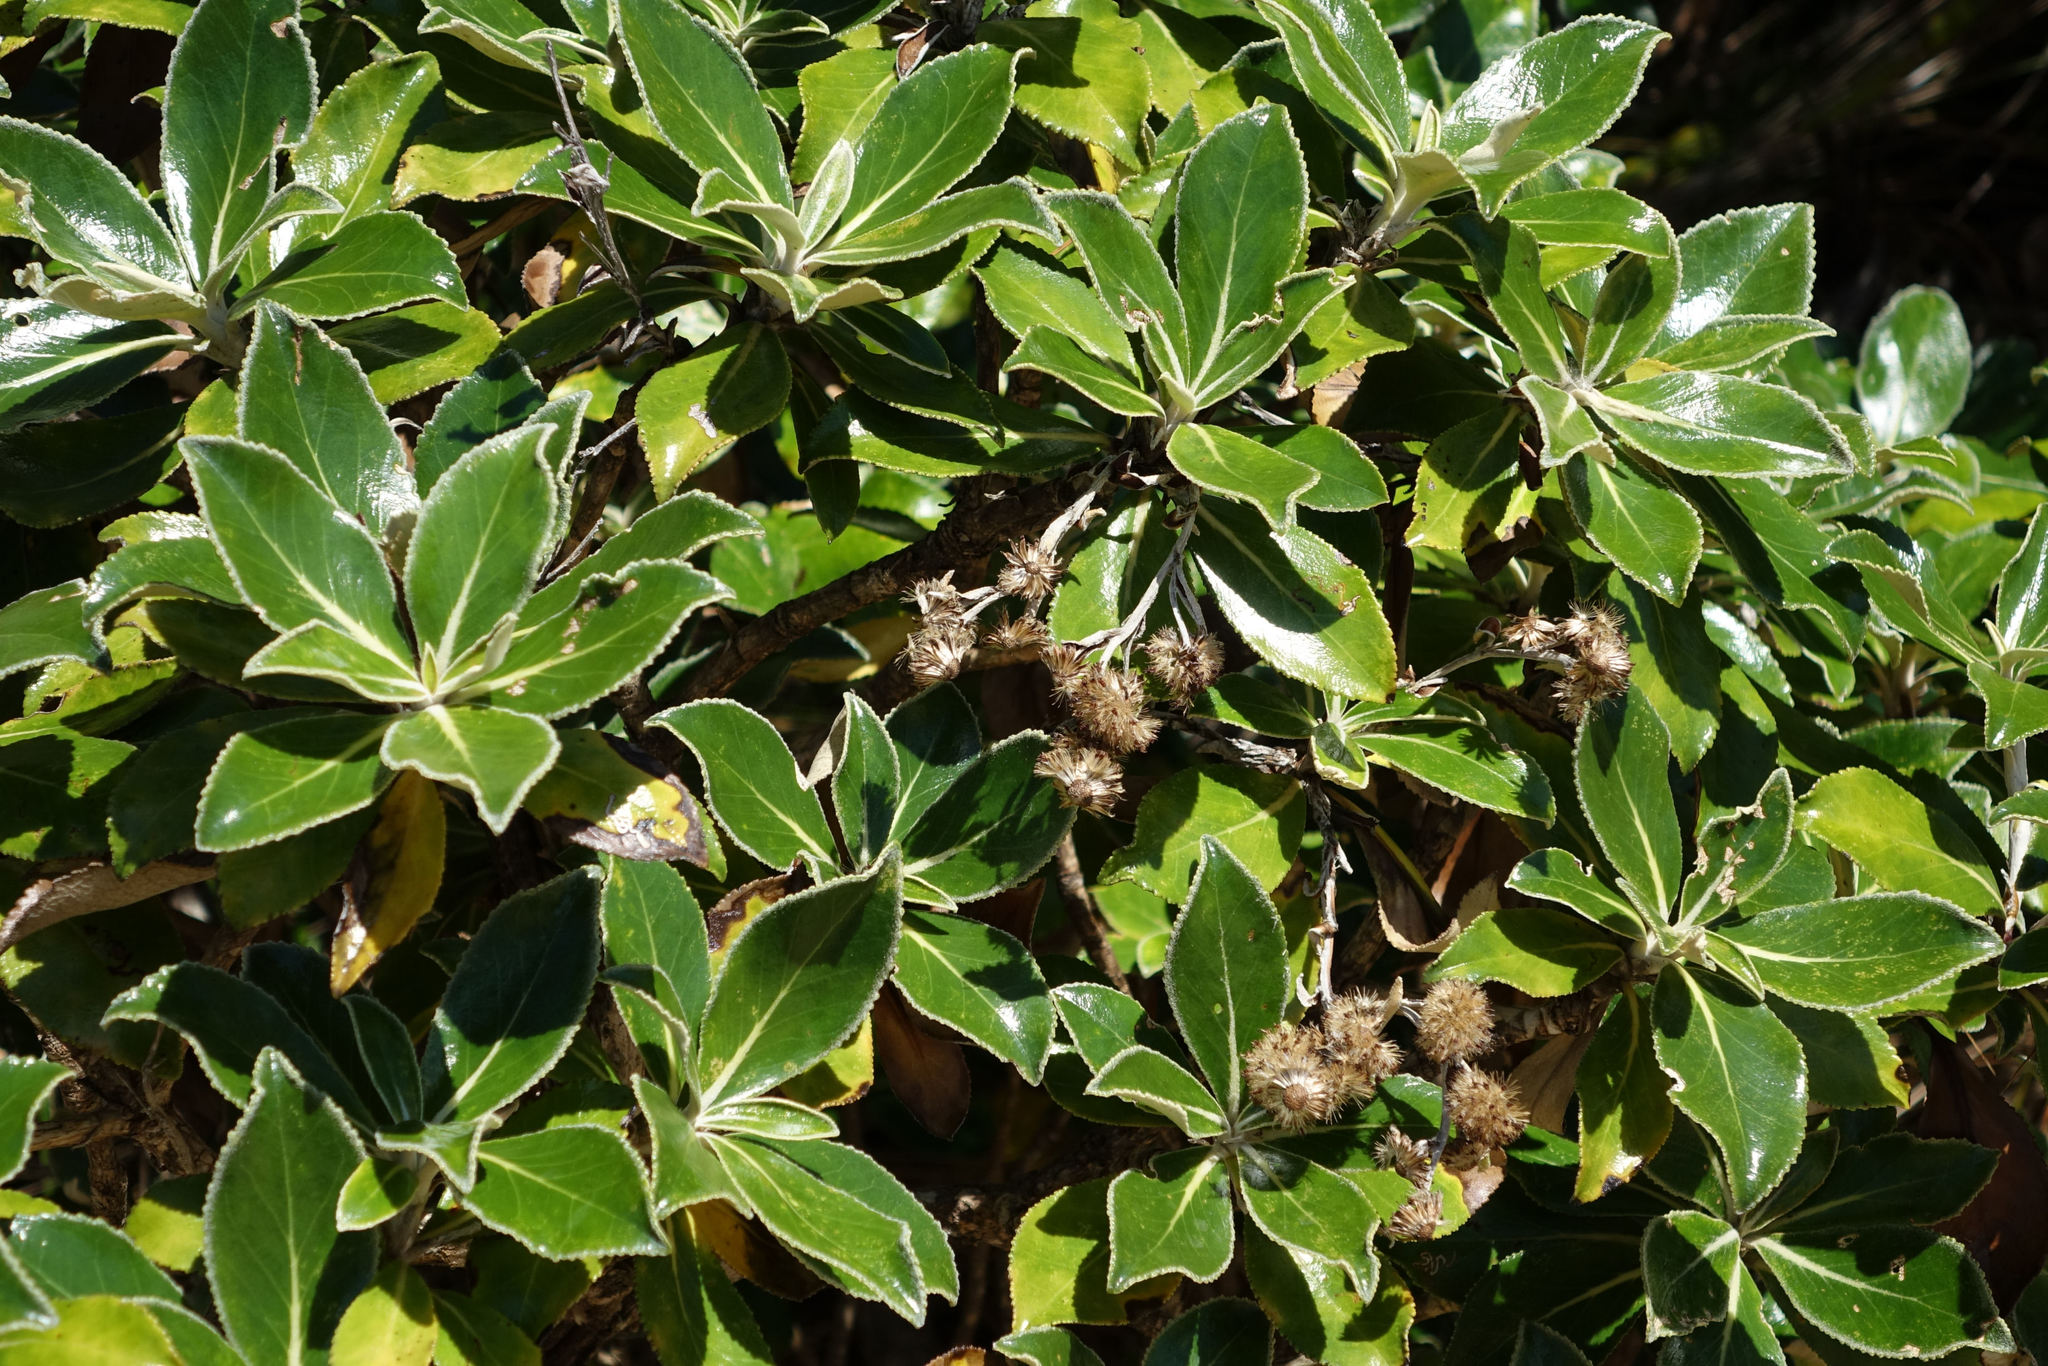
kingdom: Plantae
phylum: Tracheophyta
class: Magnoliopsida
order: Asterales
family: Asteraceae
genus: Macrolearia
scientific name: Macrolearia colensoi
